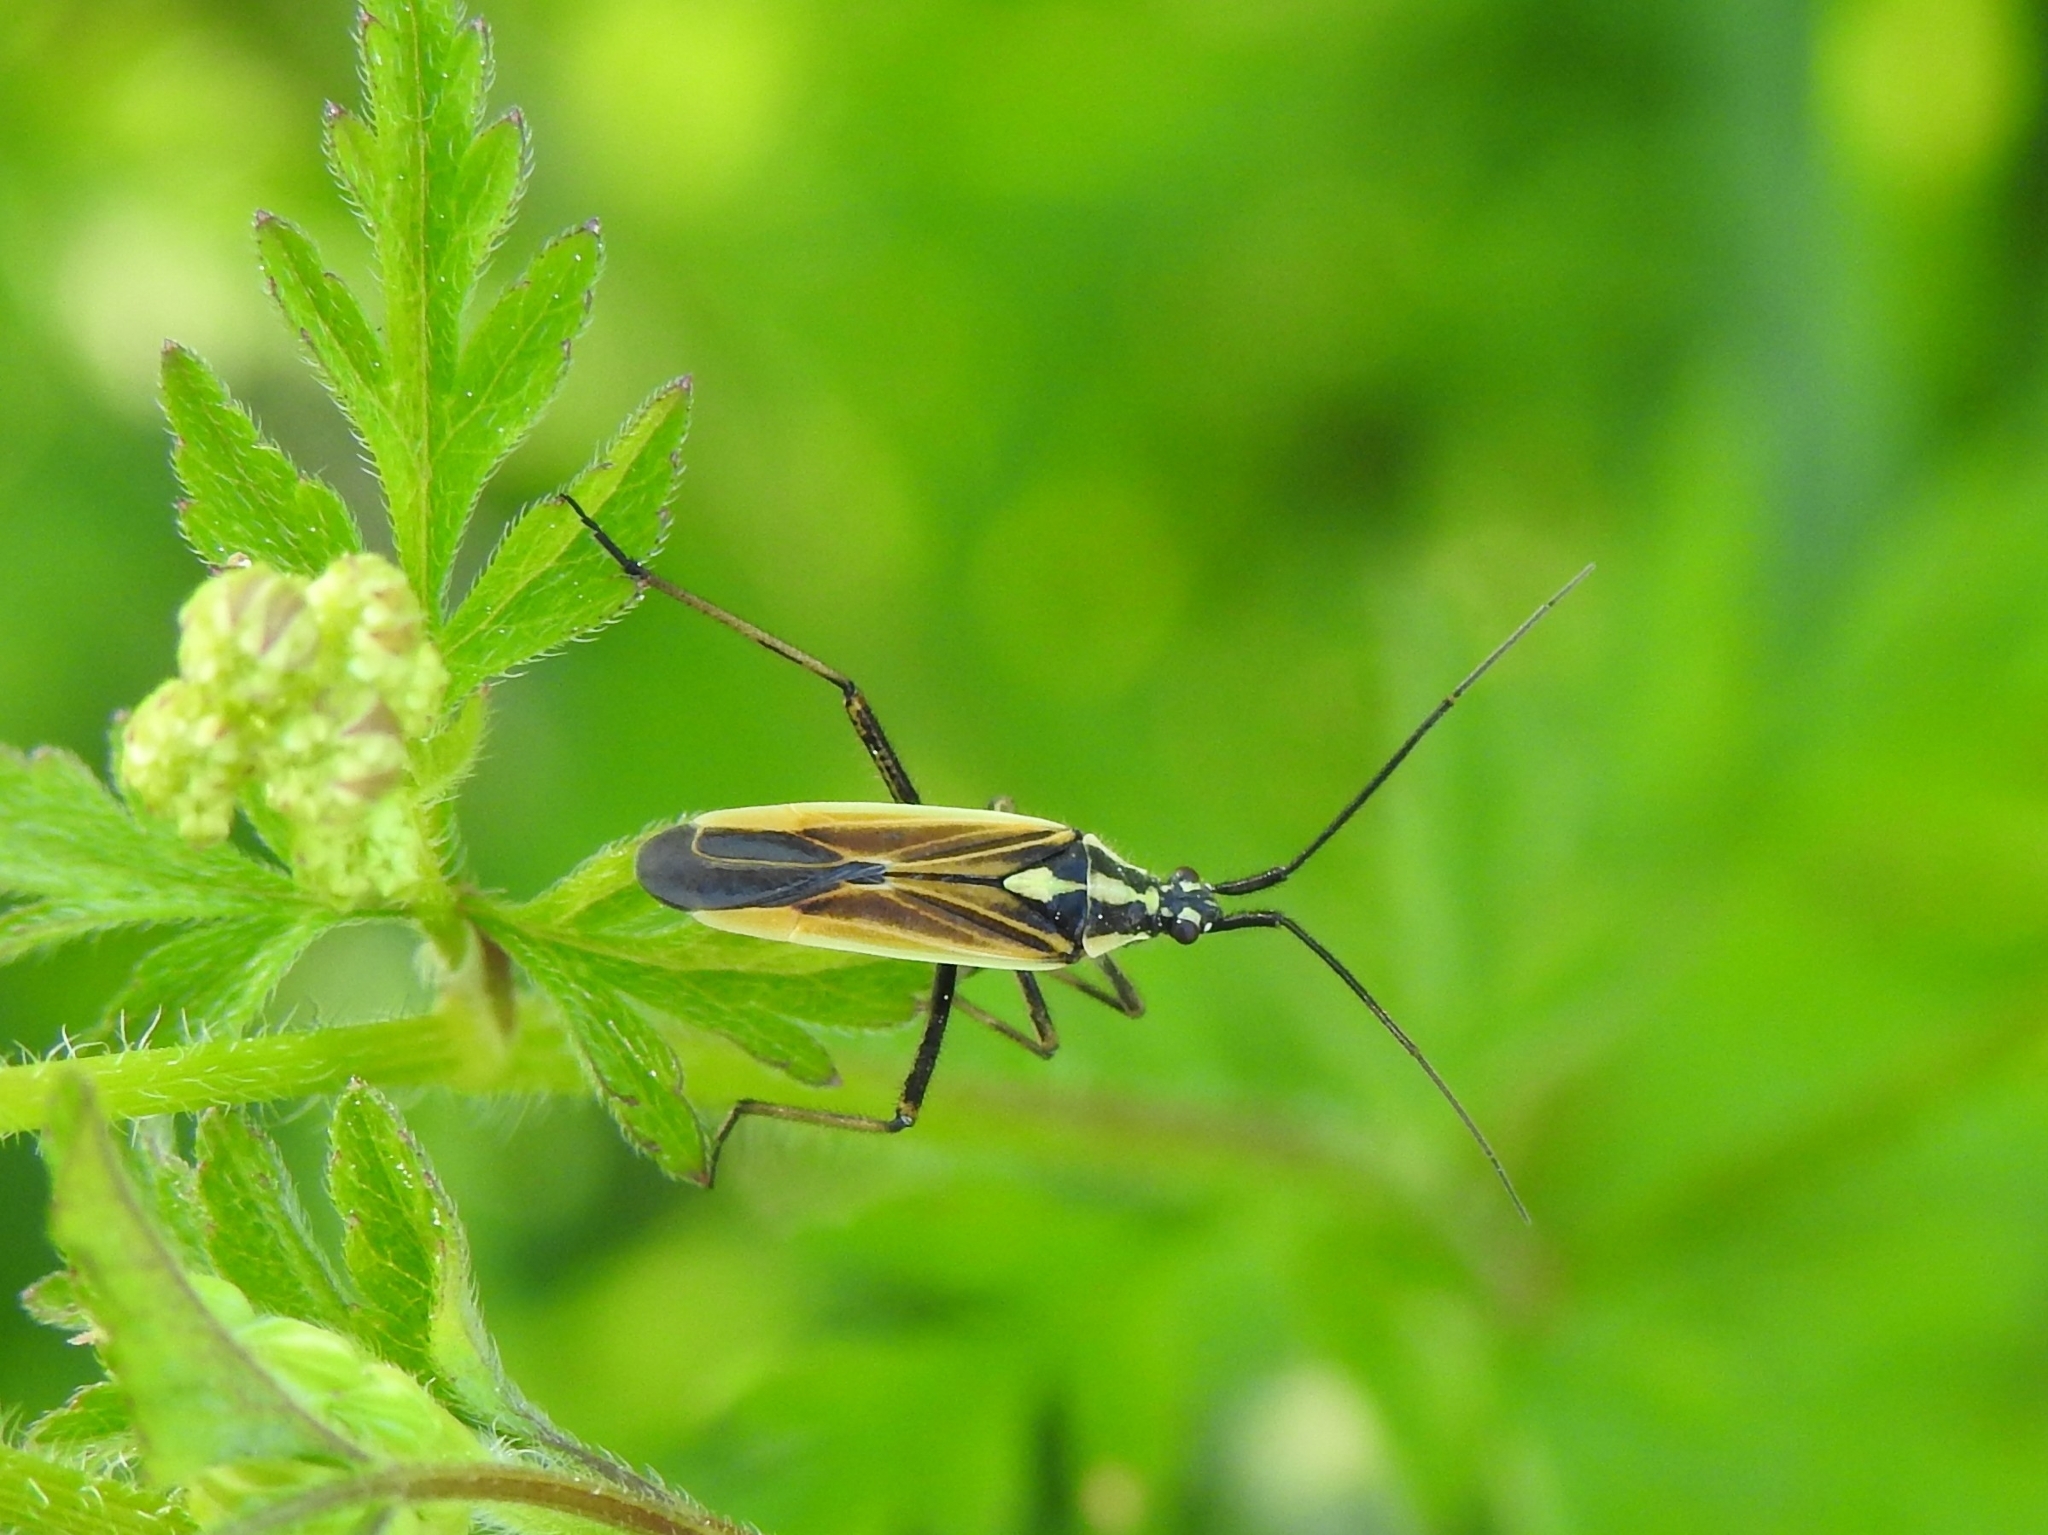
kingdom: Animalia
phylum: Arthropoda
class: Insecta
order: Hemiptera
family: Miridae
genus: Leptopterna
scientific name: Leptopterna dolabrata
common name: Meadow plant bug
